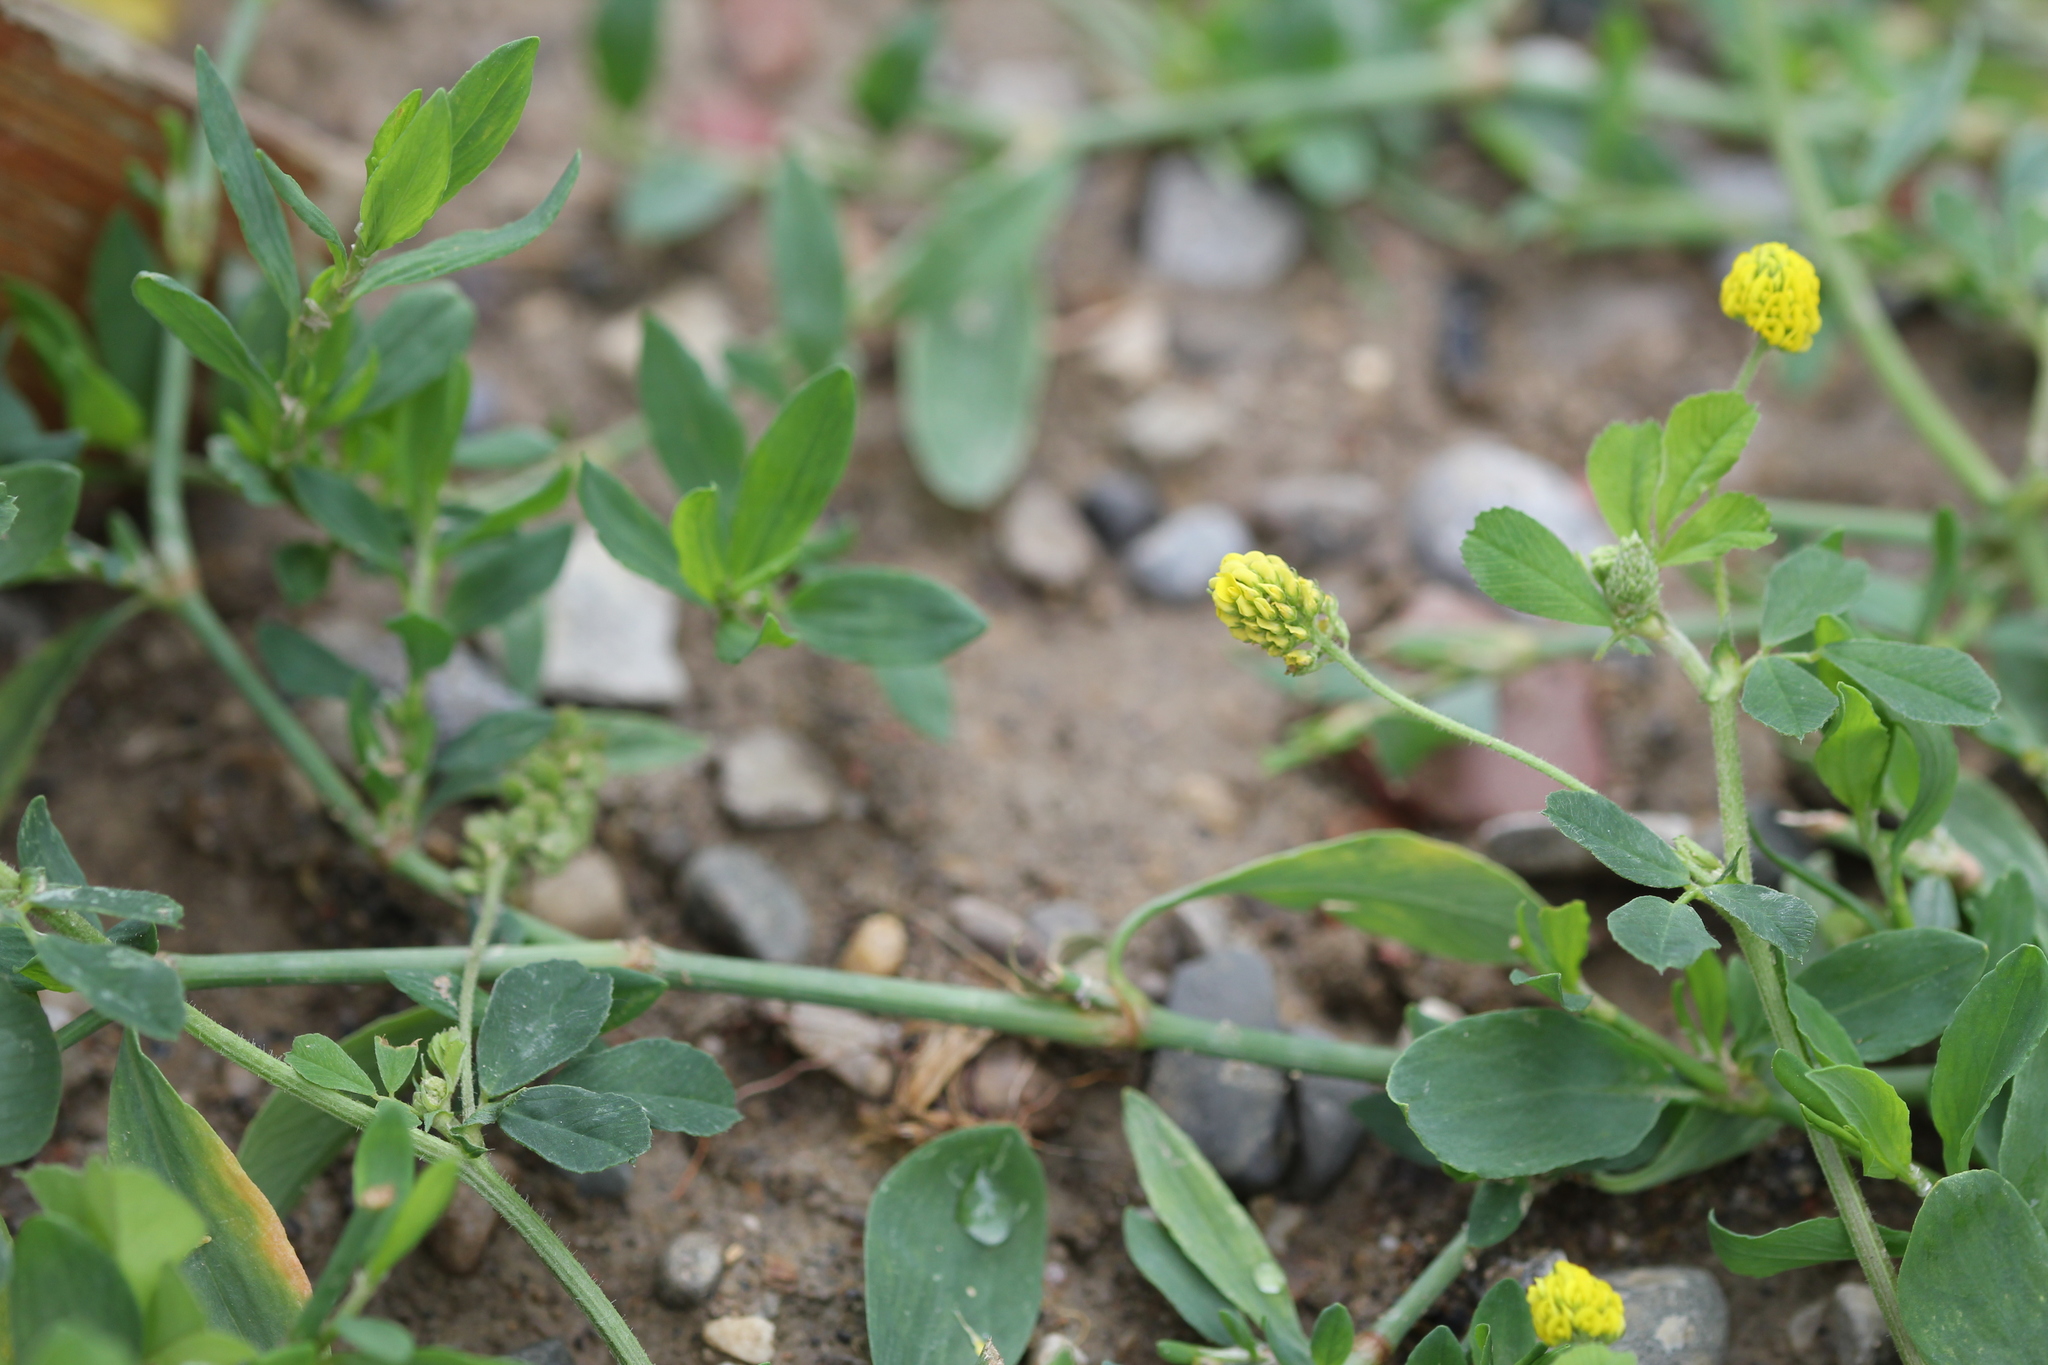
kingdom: Plantae
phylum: Tracheophyta
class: Magnoliopsida
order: Fabales
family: Fabaceae
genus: Medicago
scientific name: Medicago lupulina
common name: Black medick
